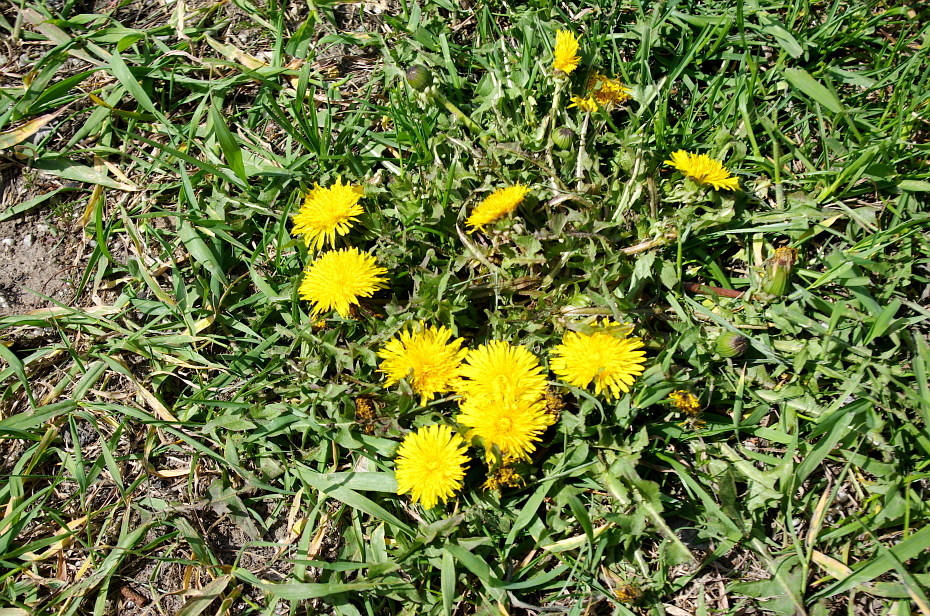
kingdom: Plantae
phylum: Tracheophyta
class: Magnoliopsida
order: Asterales
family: Asteraceae
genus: Taraxacum
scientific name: Taraxacum officinale
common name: Common dandelion
